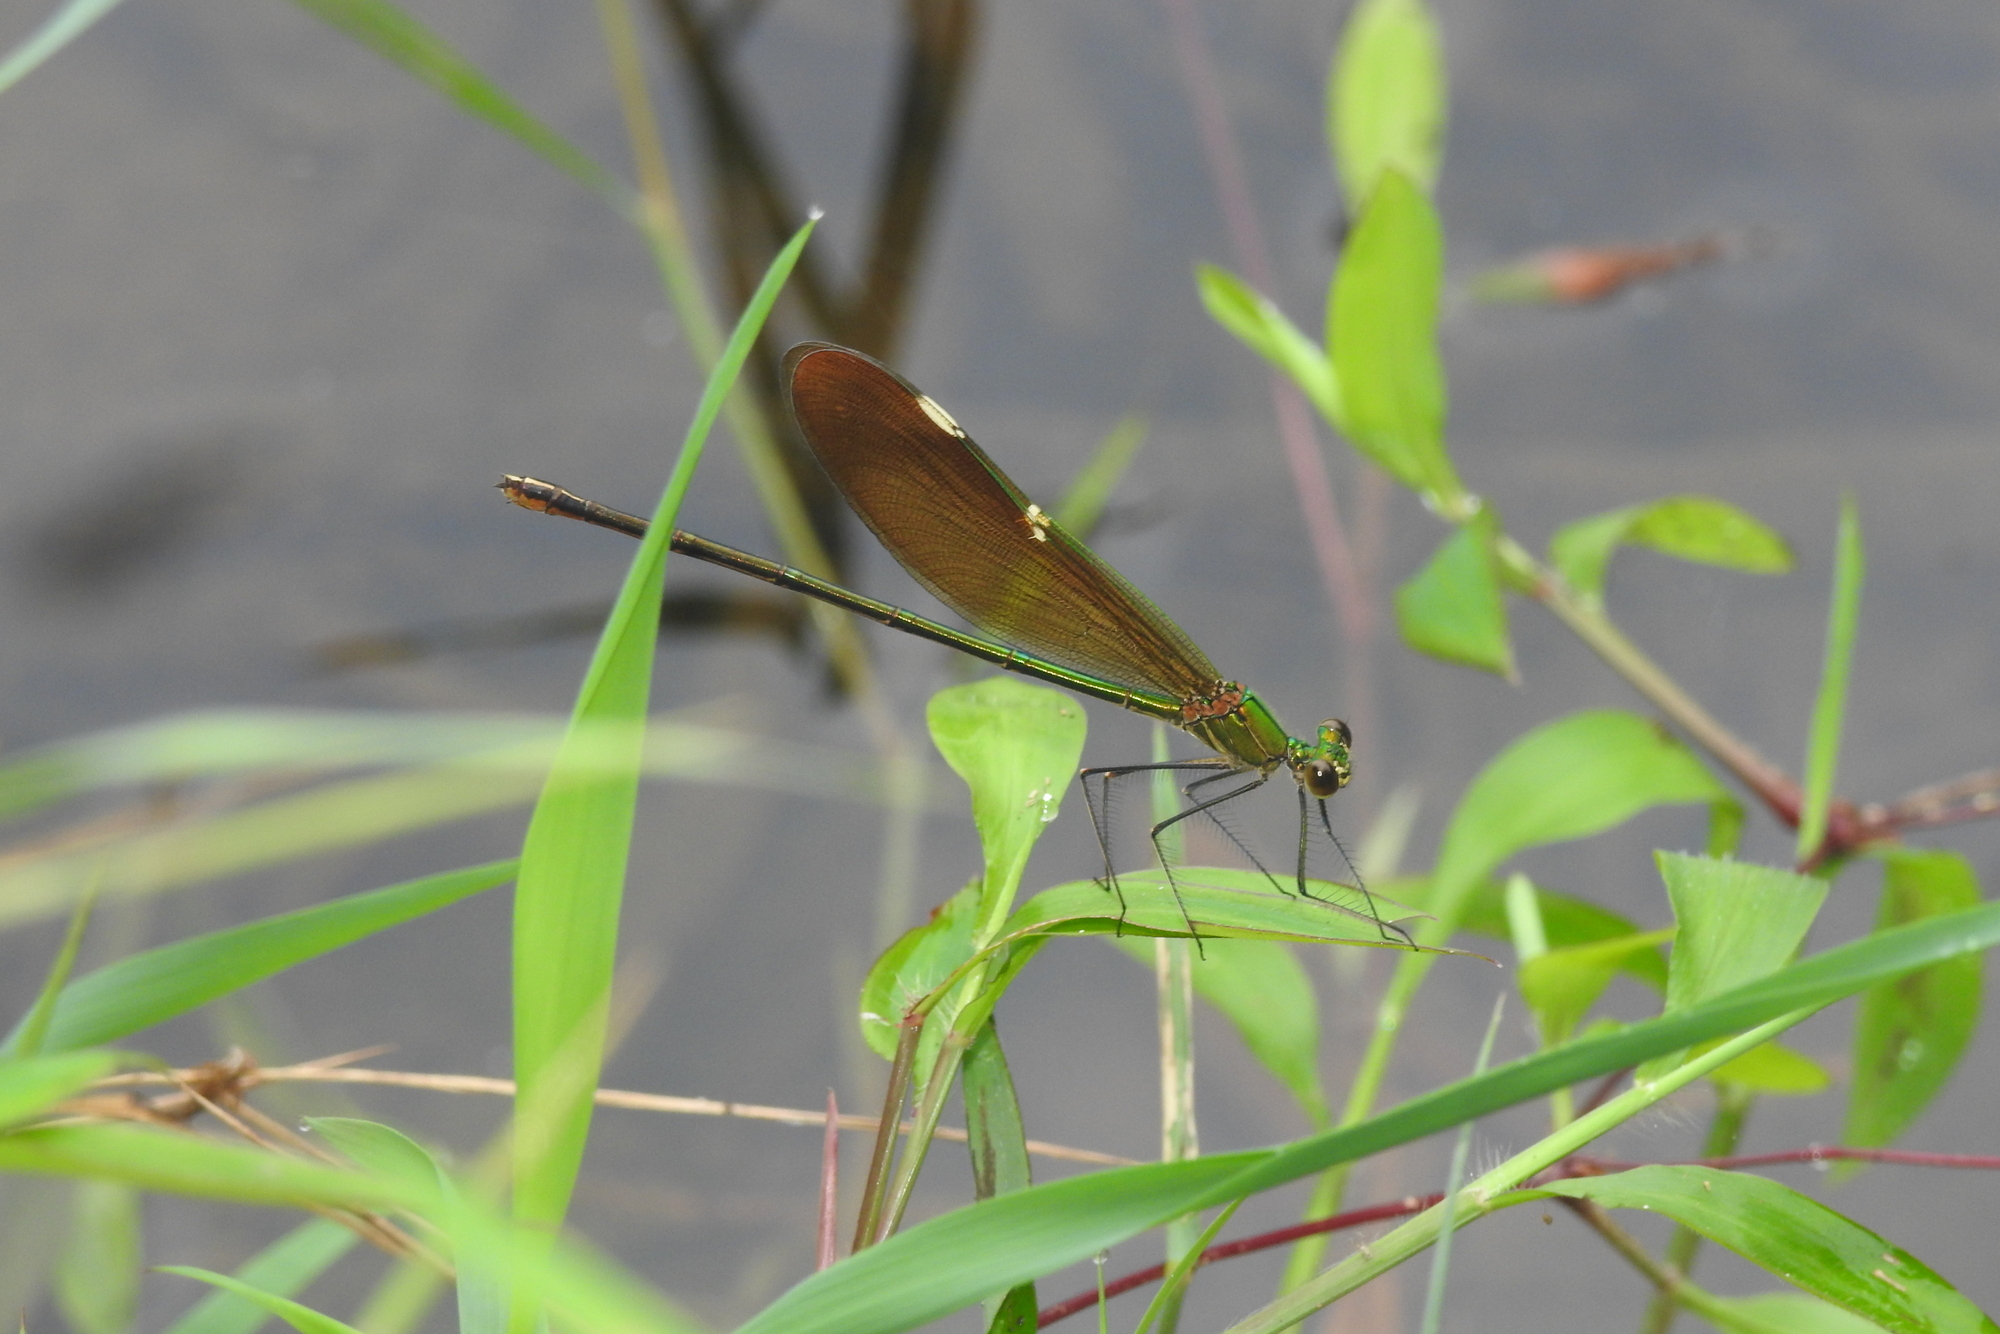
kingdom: Animalia
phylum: Arthropoda
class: Insecta
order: Odonata
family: Calopterygidae
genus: Neurobasis
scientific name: Neurobasis chinensis
